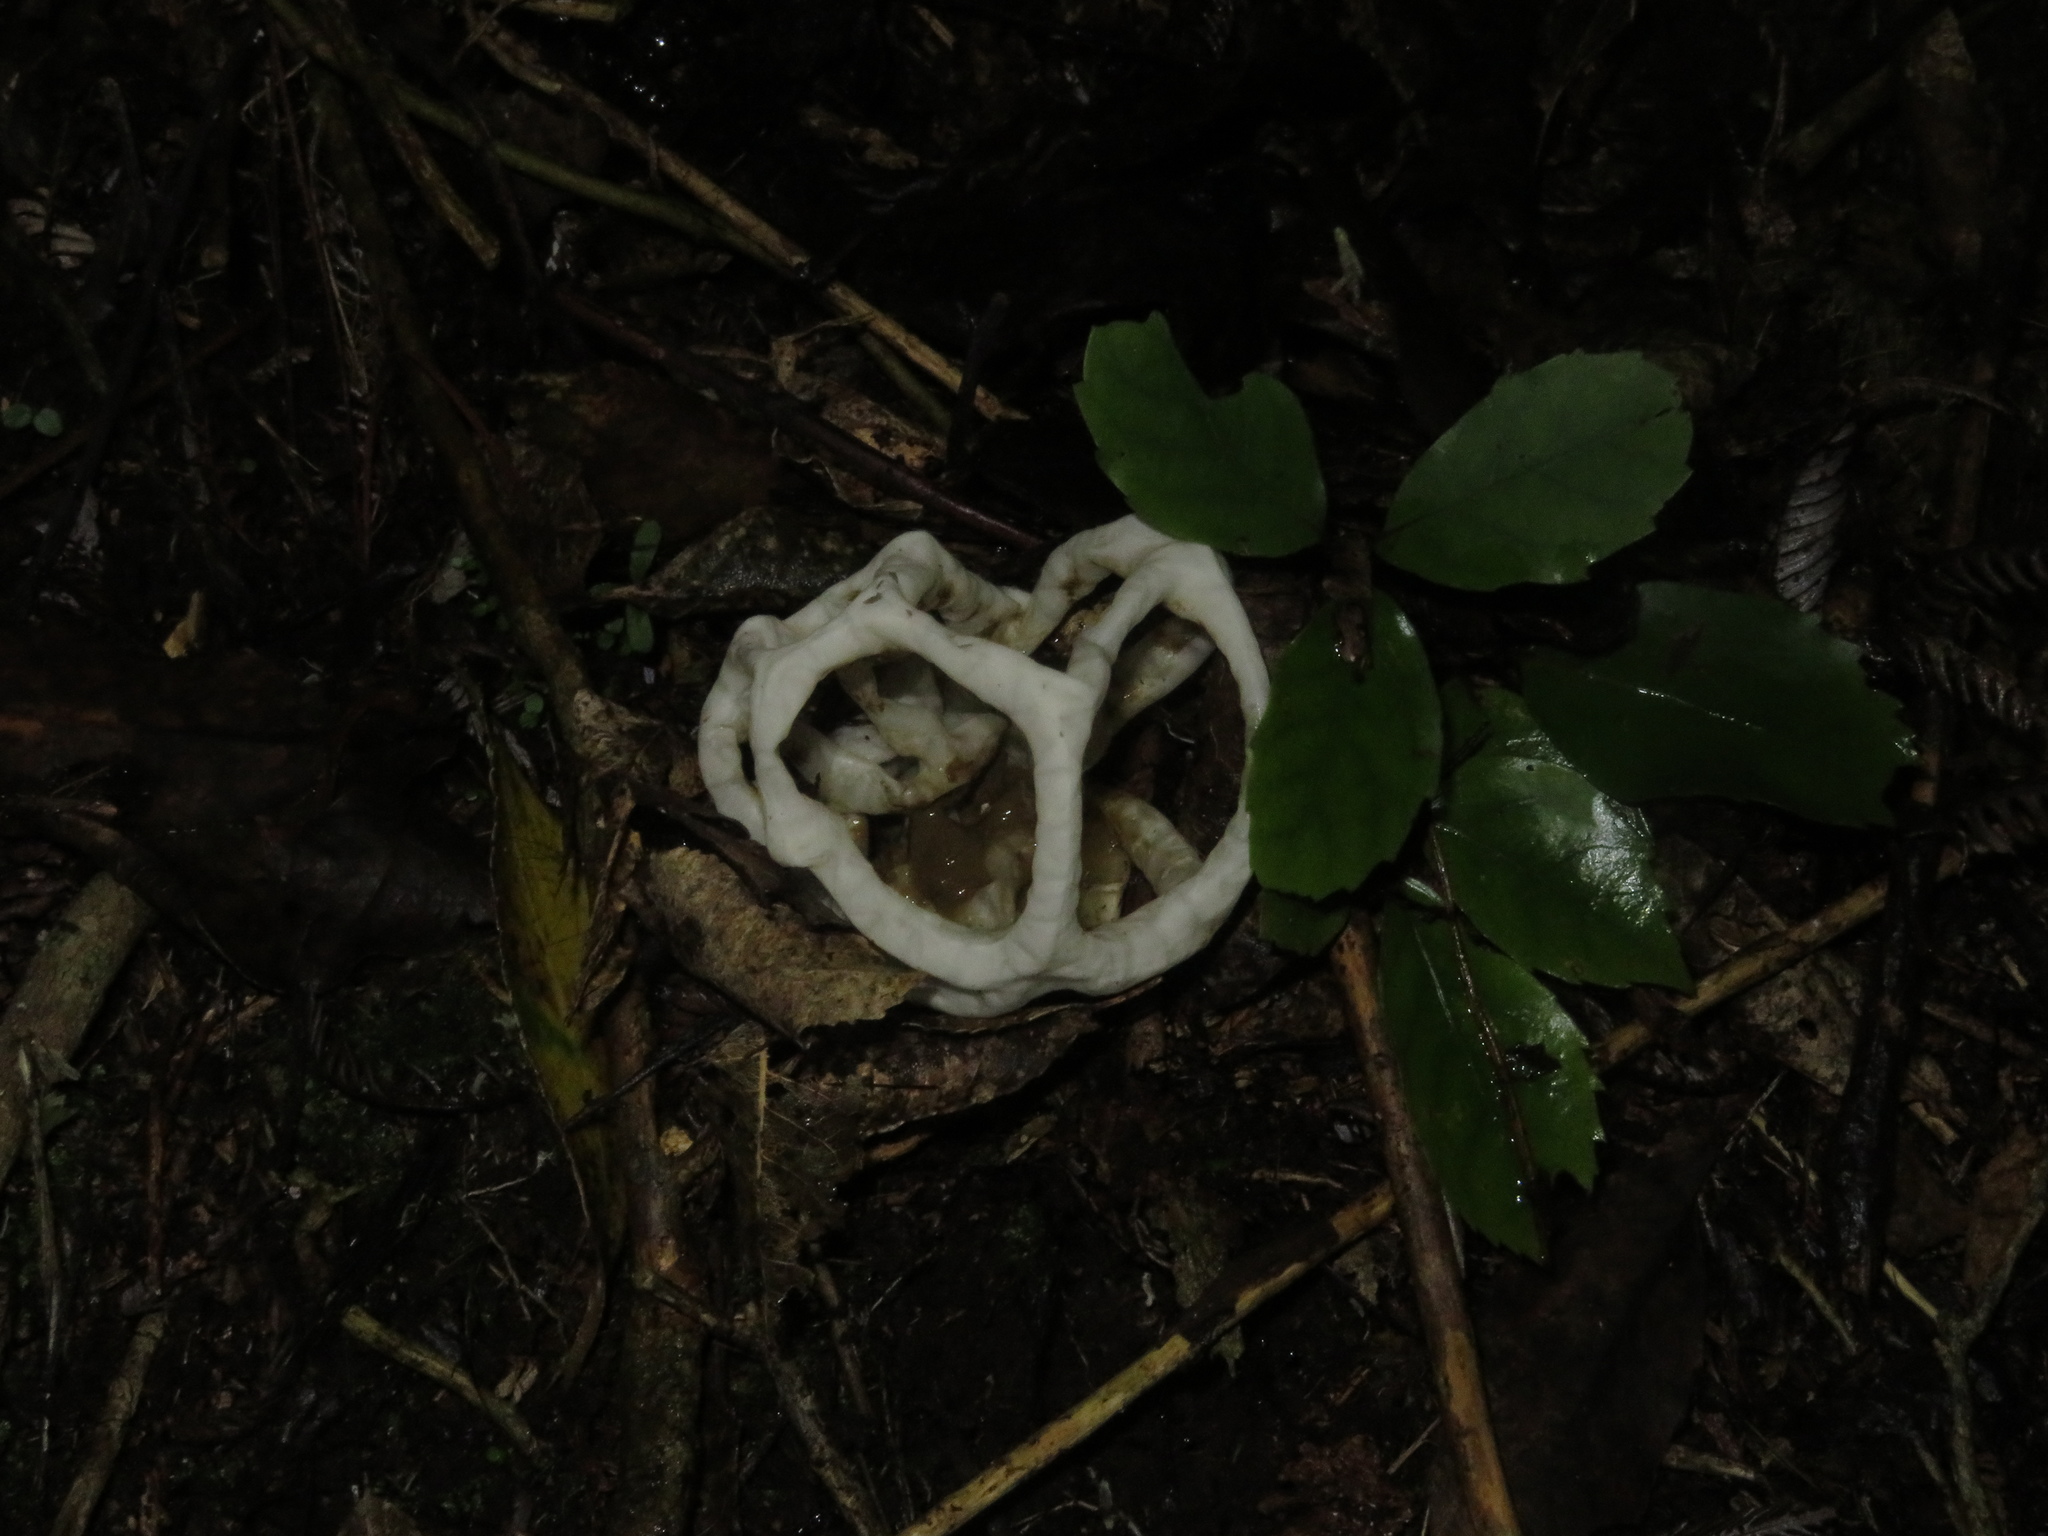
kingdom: Fungi
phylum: Basidiomycota
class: Agaricomycetes
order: Phallales
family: Phallaceae
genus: Ileodictyon
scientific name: Ileodictyon cibarium
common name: Basket fungus
